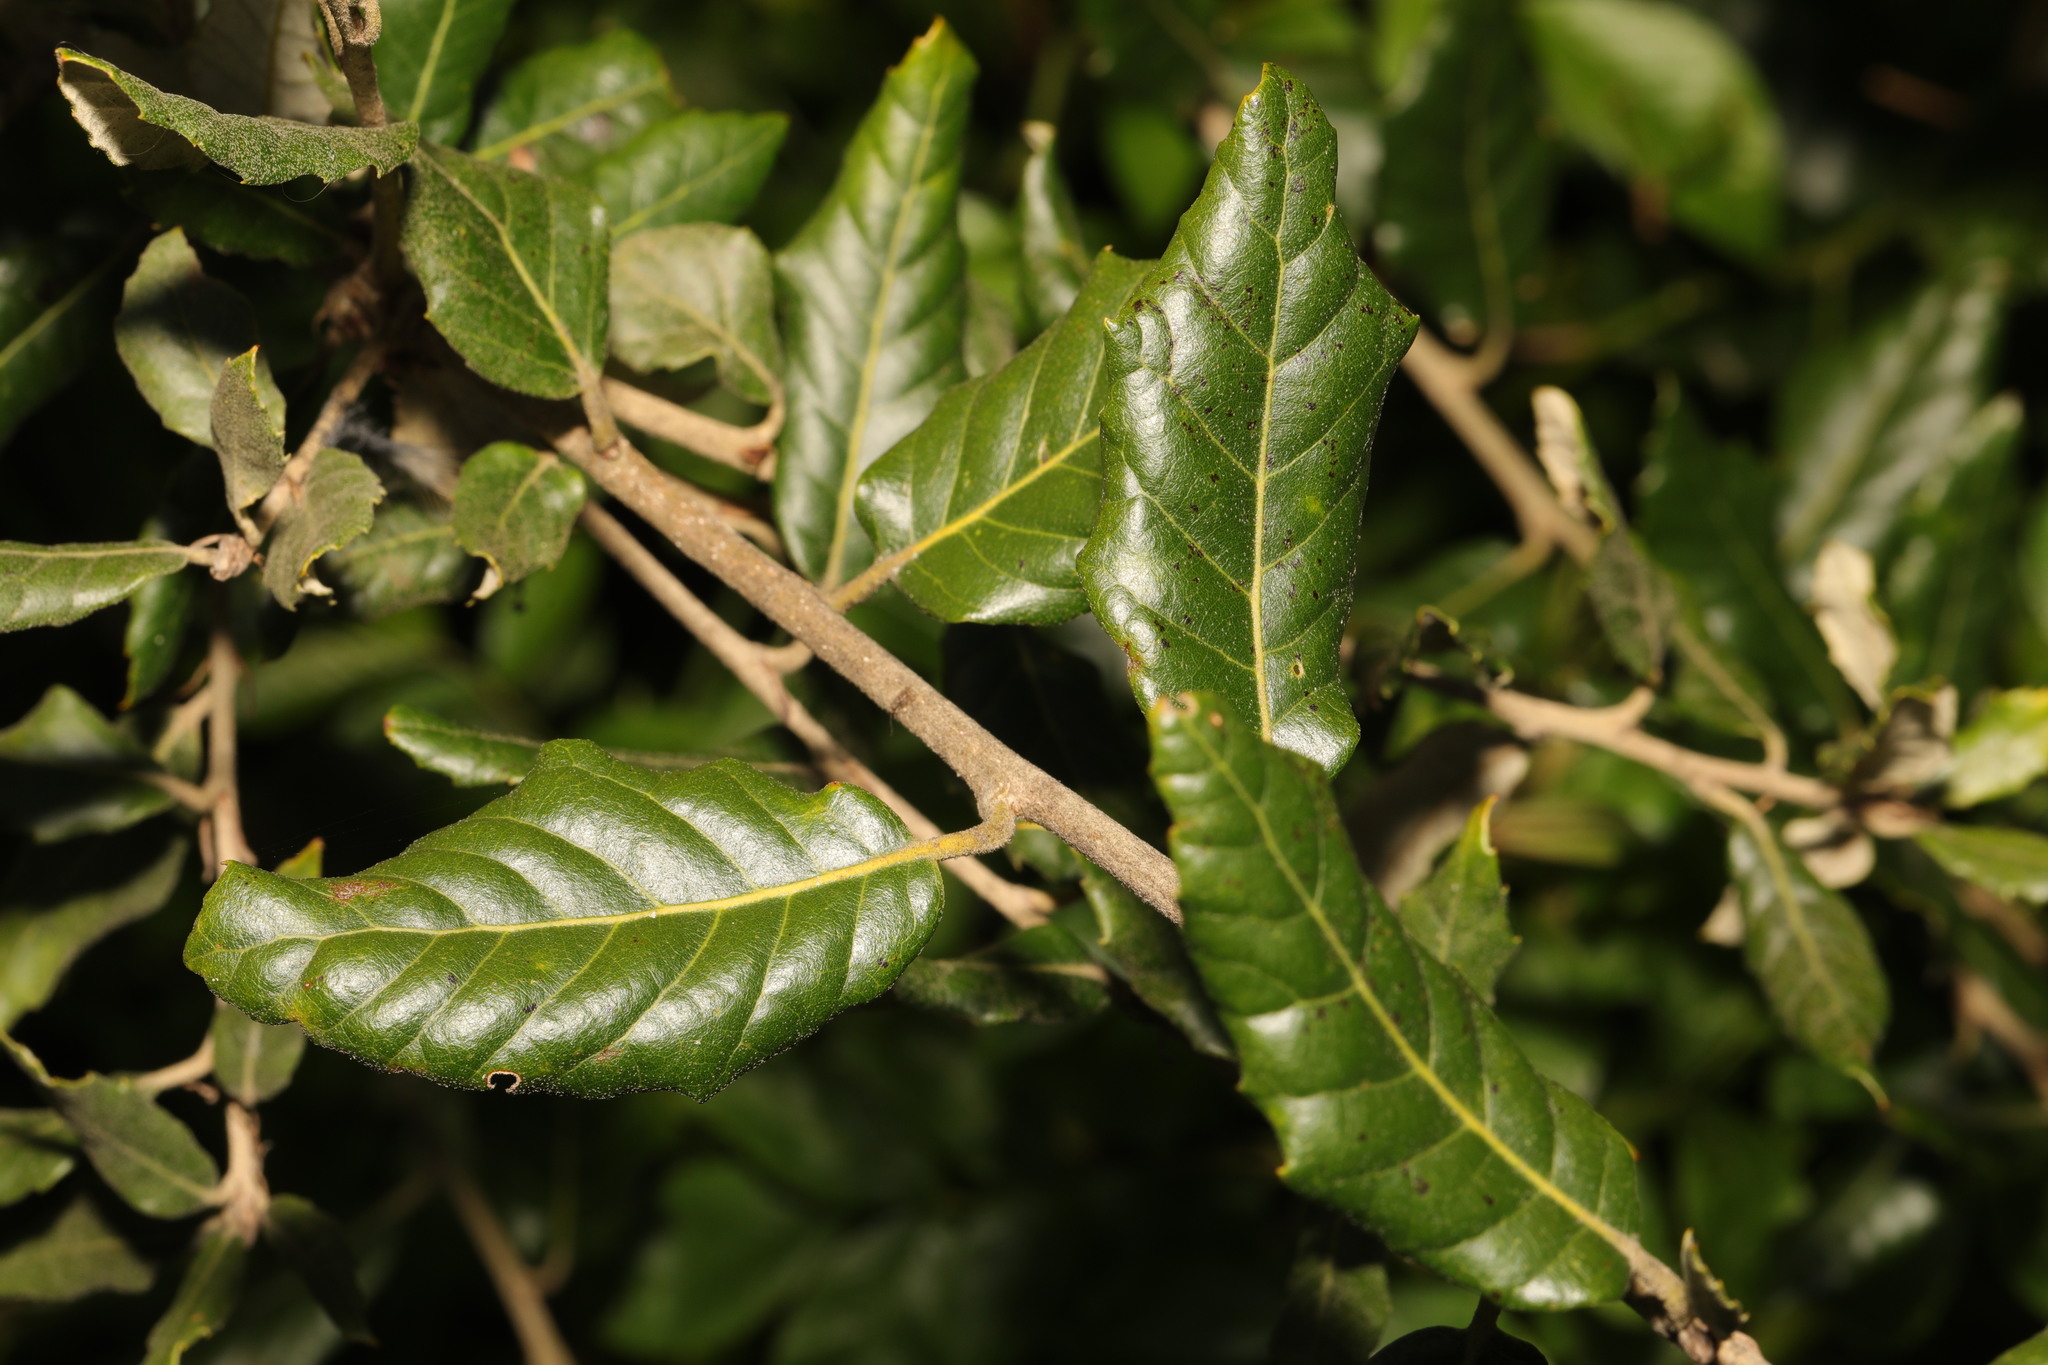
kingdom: Plantae
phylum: Tracheophyta
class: Magnoliopsida
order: Fagales
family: Fagaceae
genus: Quercus
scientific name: Quercus ilex
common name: Evergreen oak
